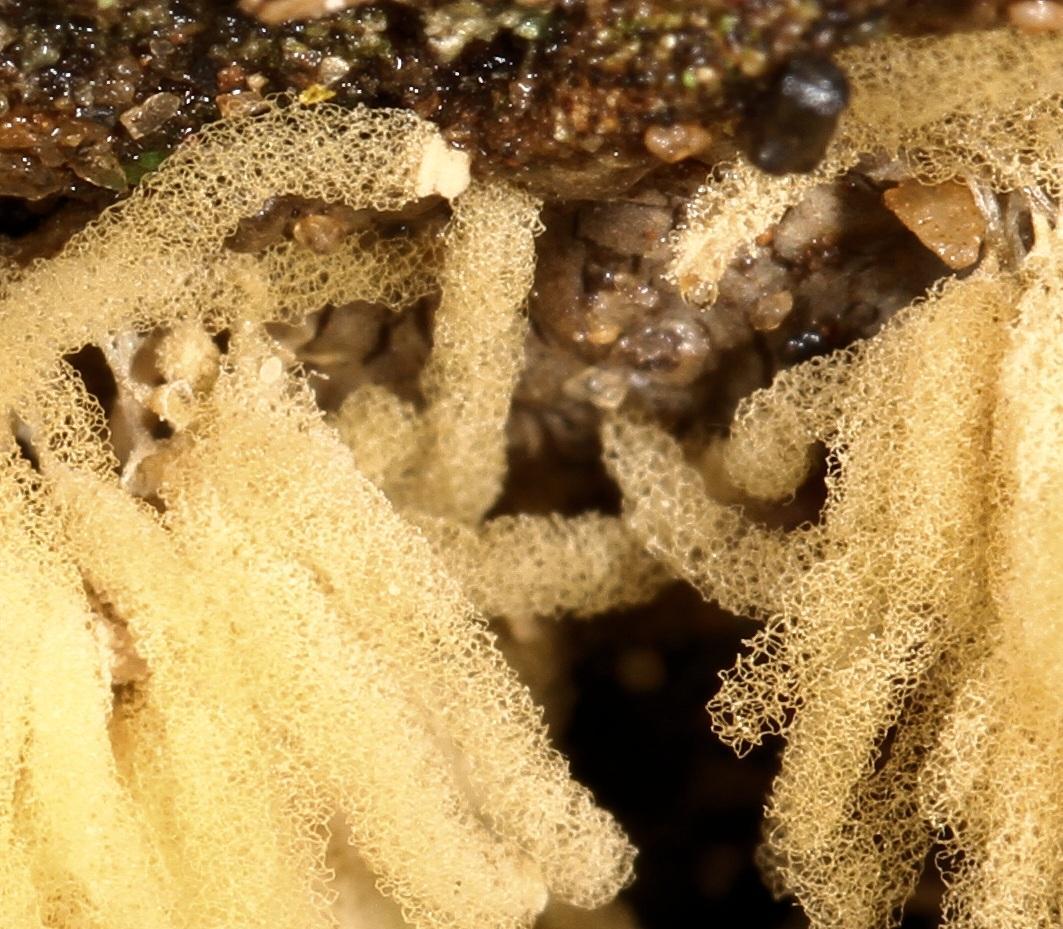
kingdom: Protozoa
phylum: Mycetozoa
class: Myxomycetes
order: Trichiales
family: Arcyriaceae
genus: Arcyria
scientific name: Arcyria obvelata
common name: Yellow carnival candy slime
